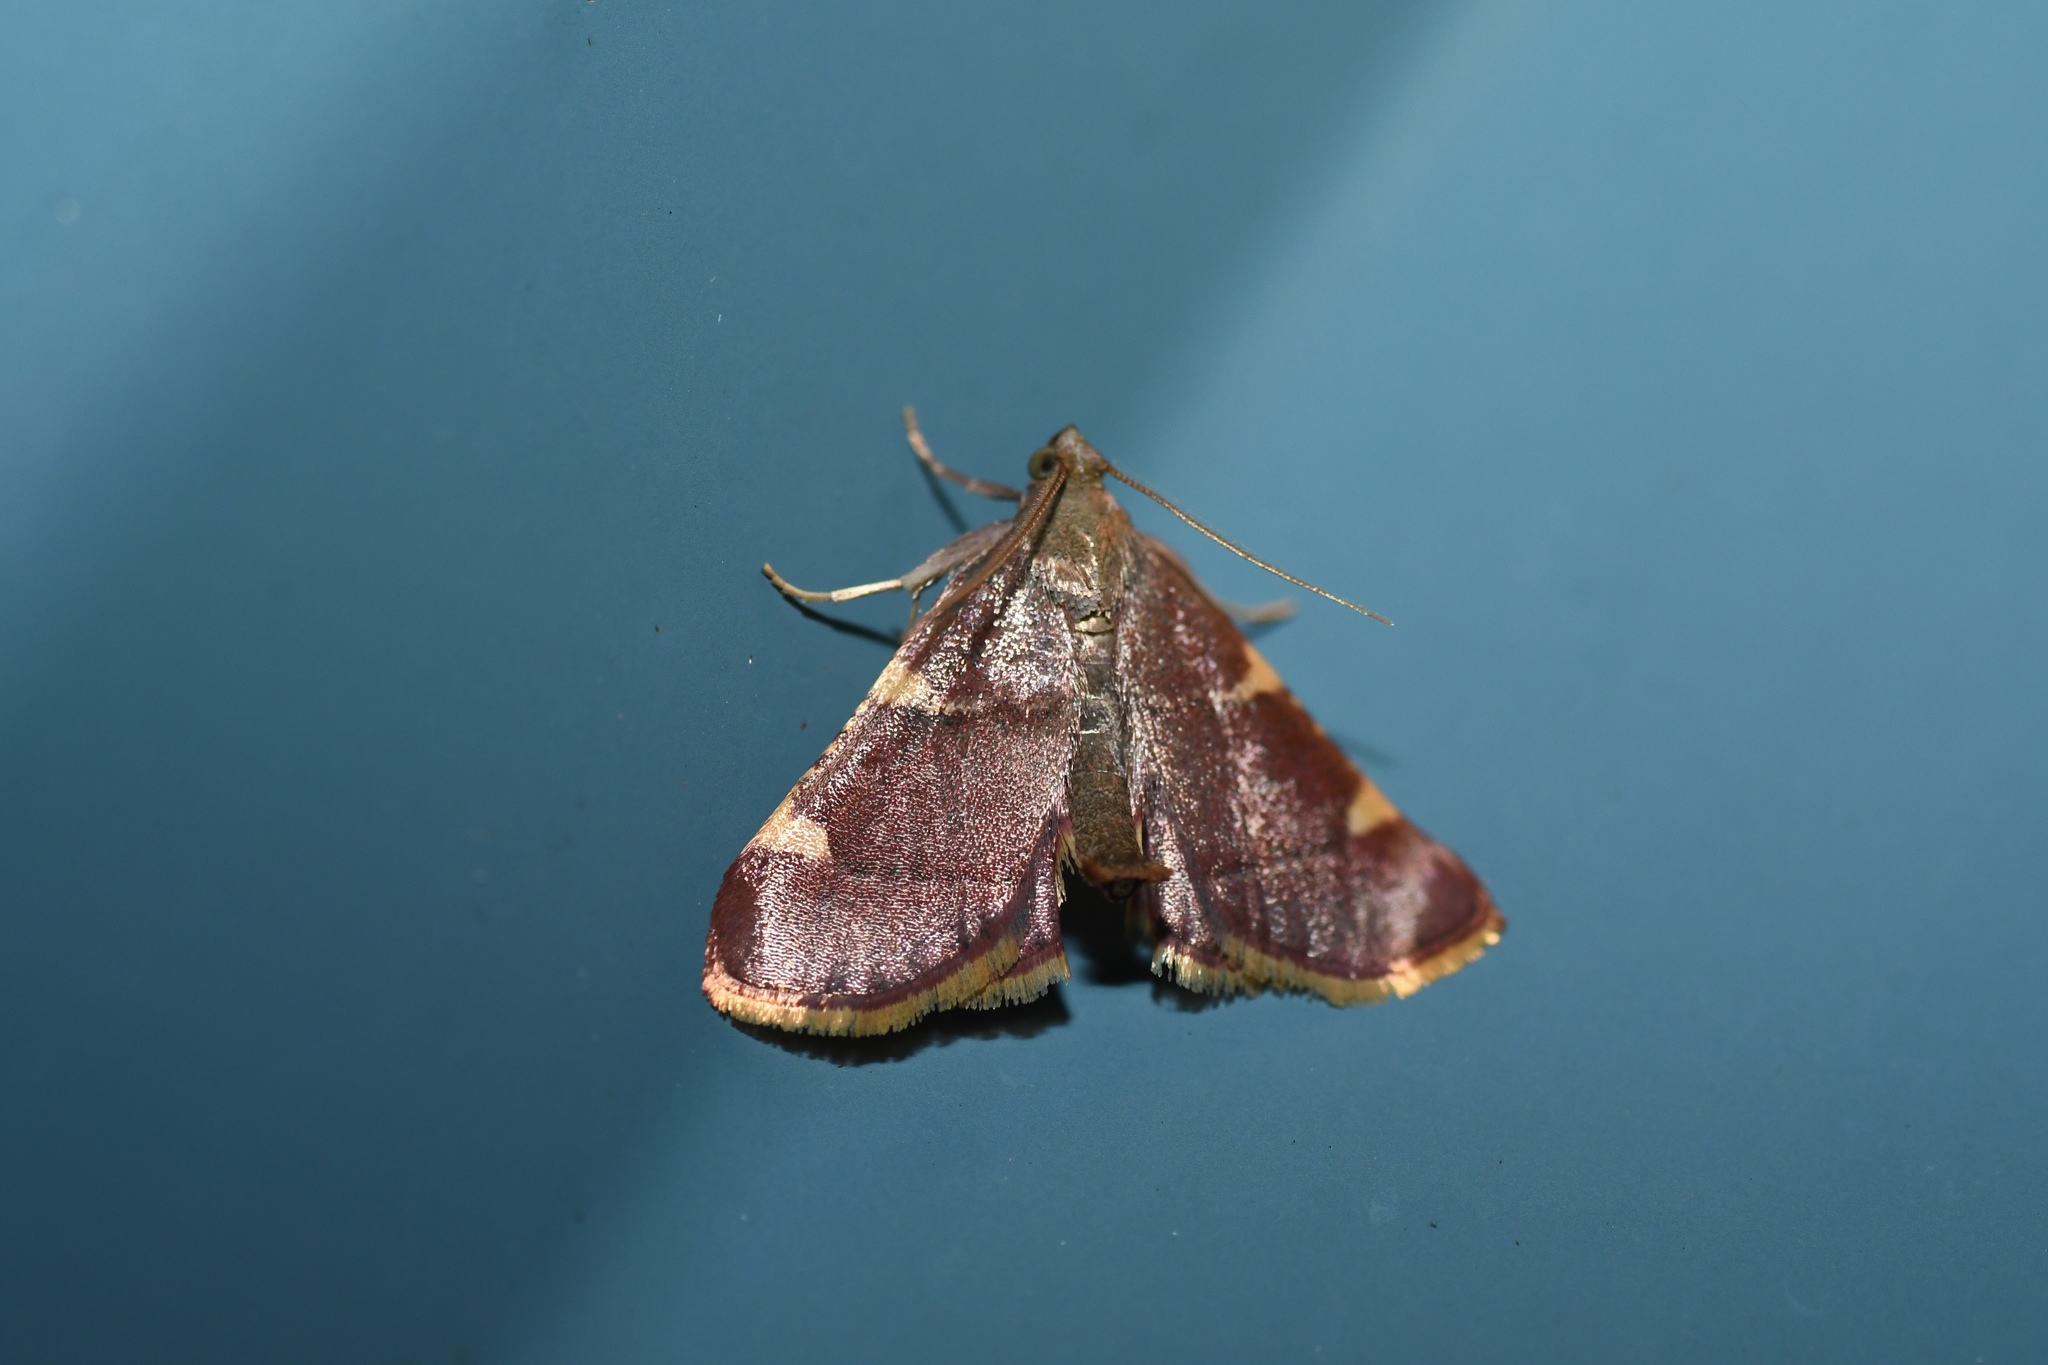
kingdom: Animalia
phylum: Arthropoda
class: Insecta
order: Lepidoptera
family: Pyralidae
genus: Hypsopygia
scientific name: Hypsopygia olinalis
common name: Yellow-fringed dolichomia moth
